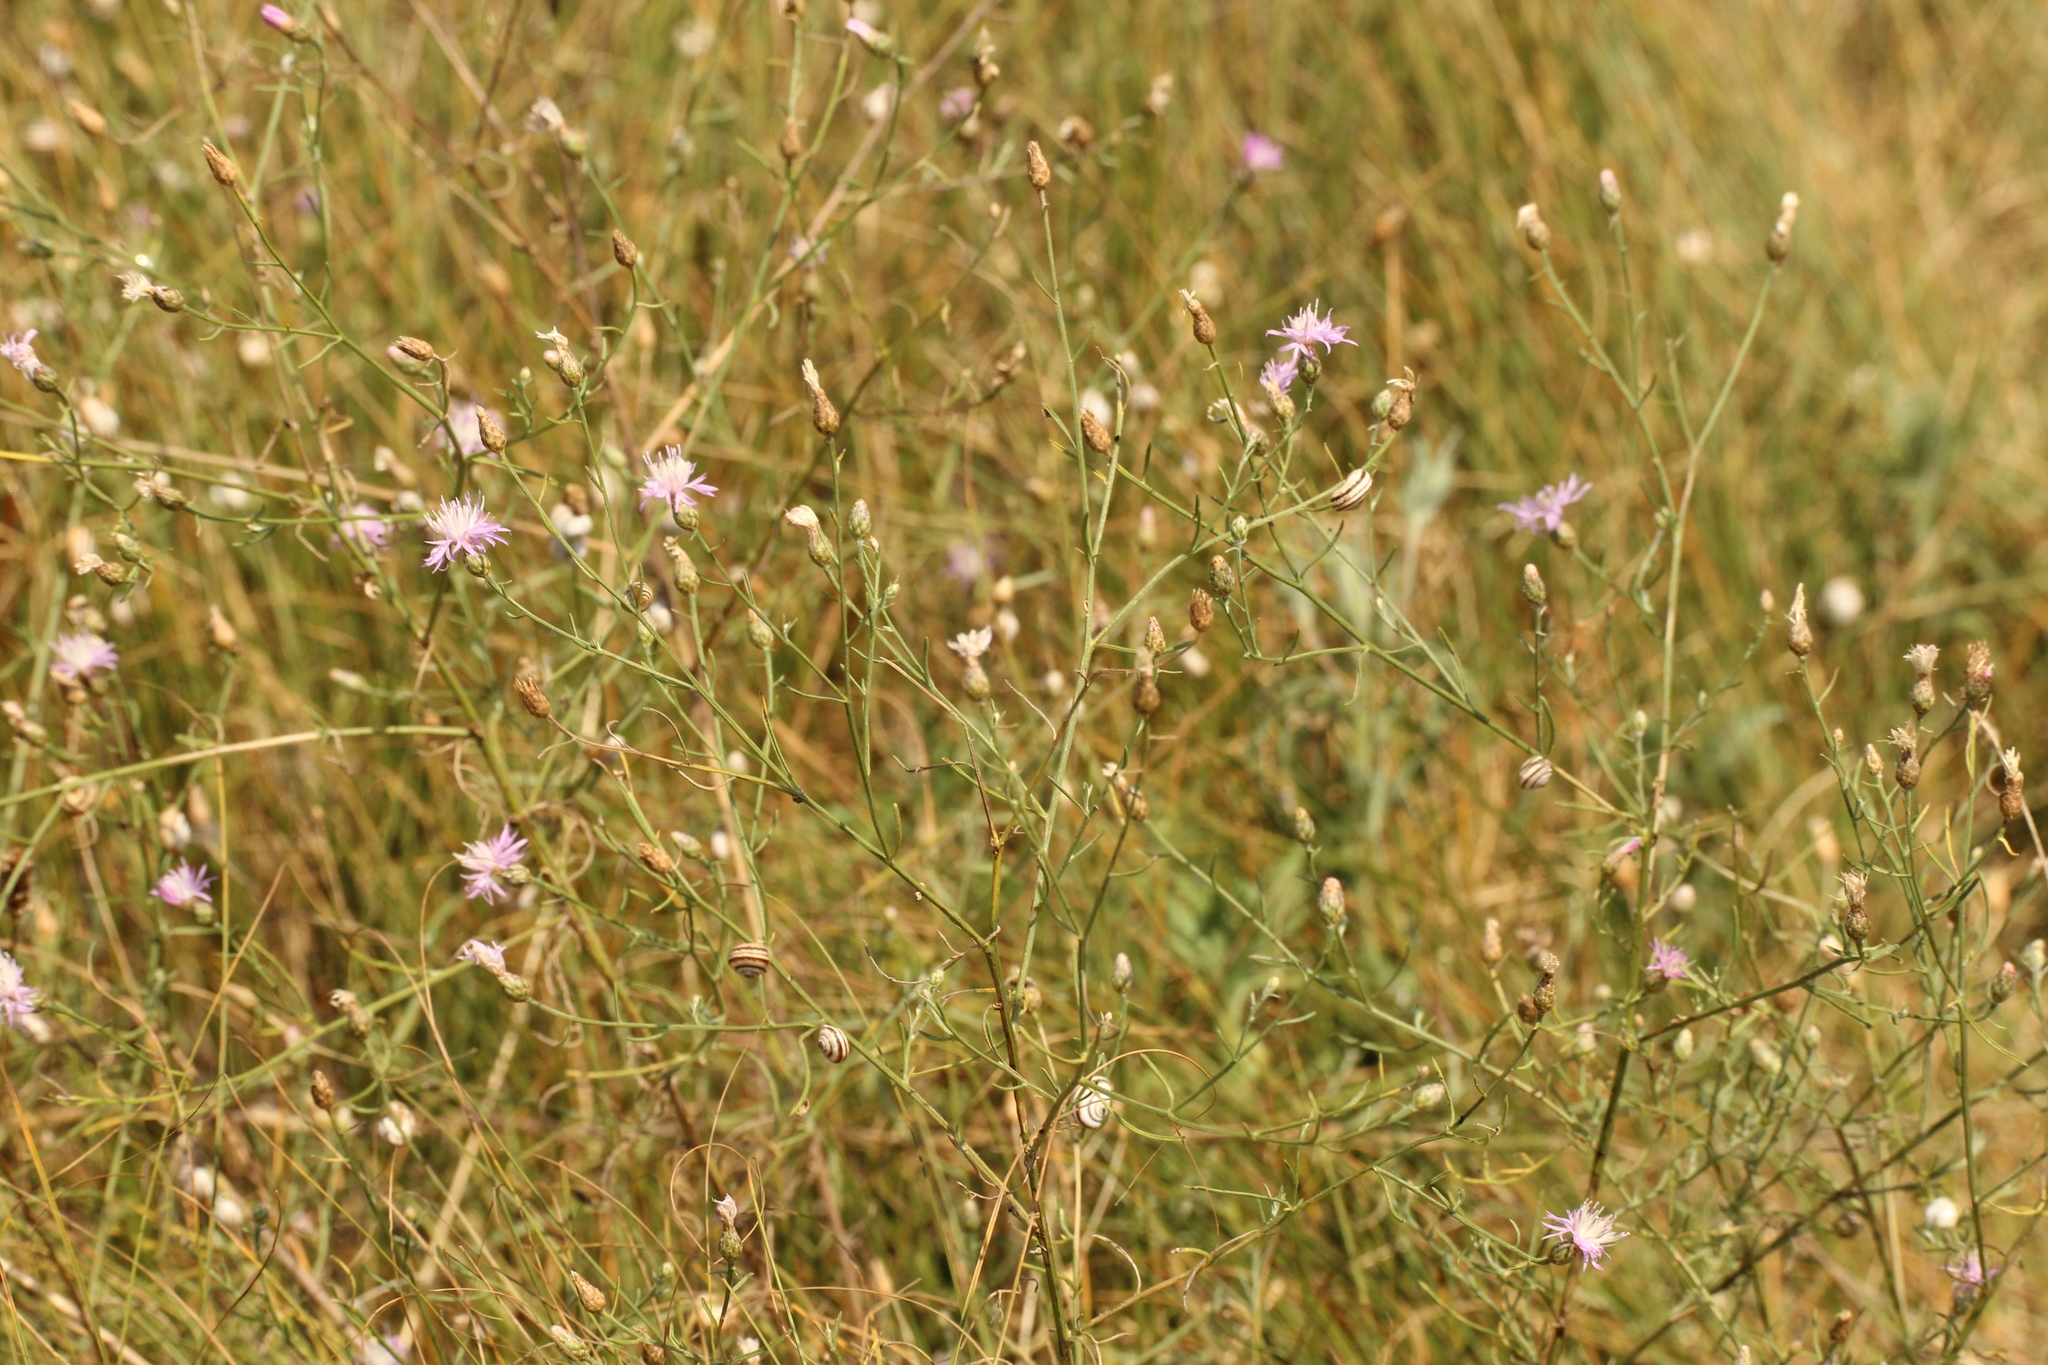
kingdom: Plantae
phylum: Tracheophyta
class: Magnoliopsida
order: Asterales
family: Asteraceae
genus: Centaurea
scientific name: Centaurea stoebe
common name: Spotted knapweed
